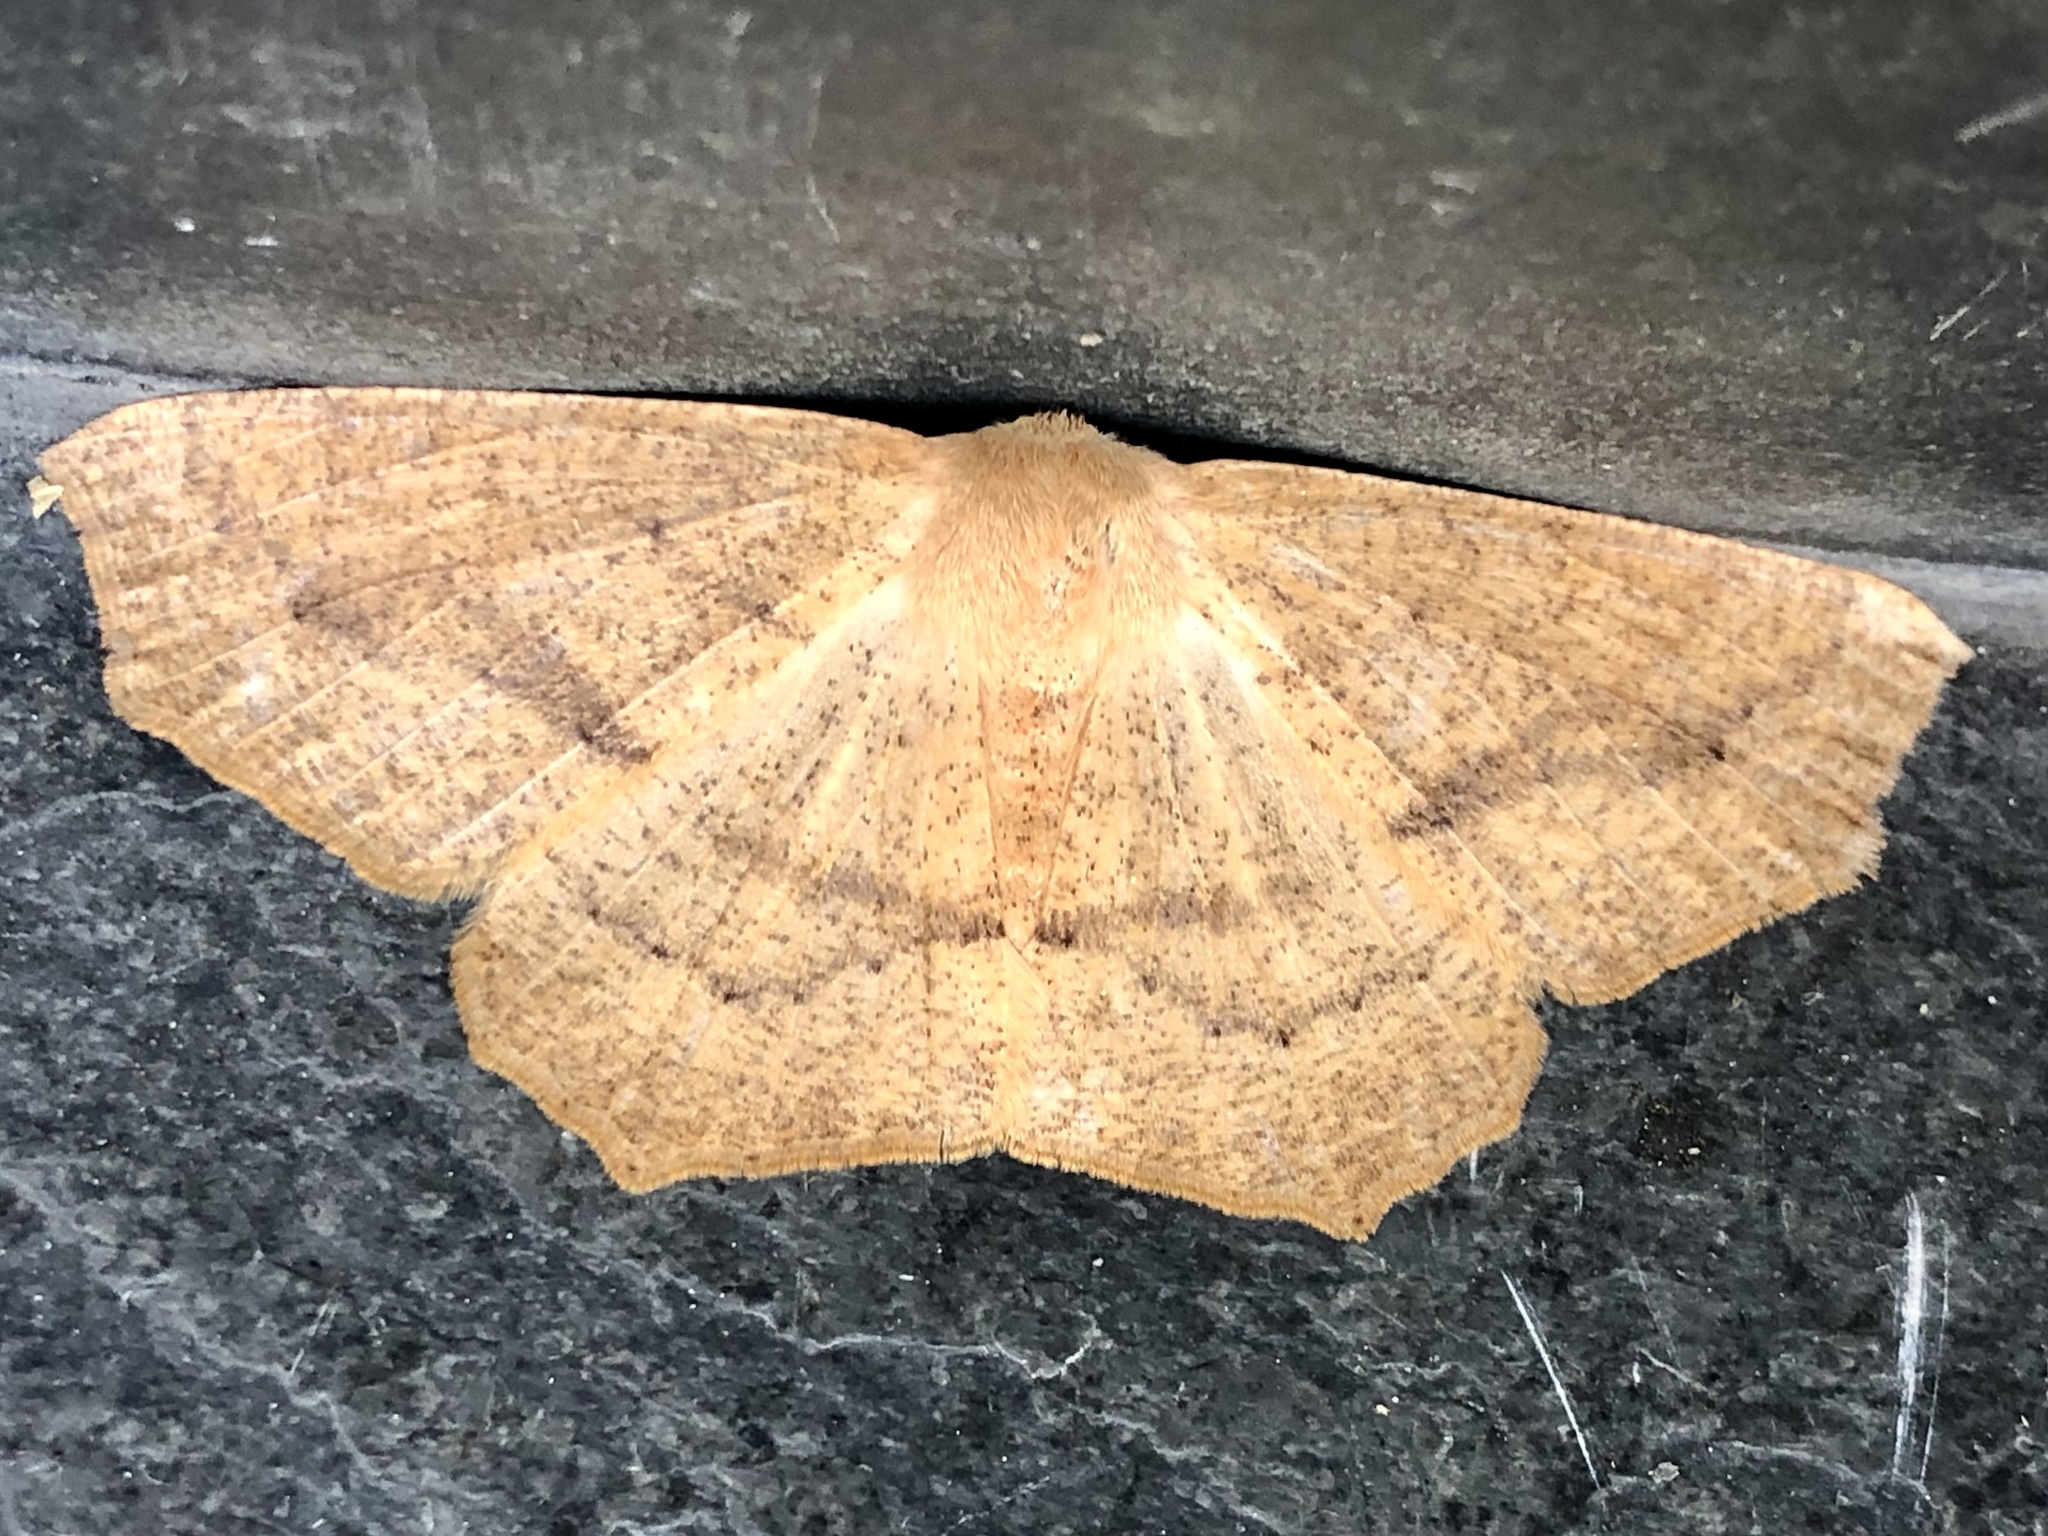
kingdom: Animalia
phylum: Arthropoda
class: Insecta
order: Lepidoptera
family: Geometridae
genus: Sabulodes
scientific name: Sabulodes aegrotata
